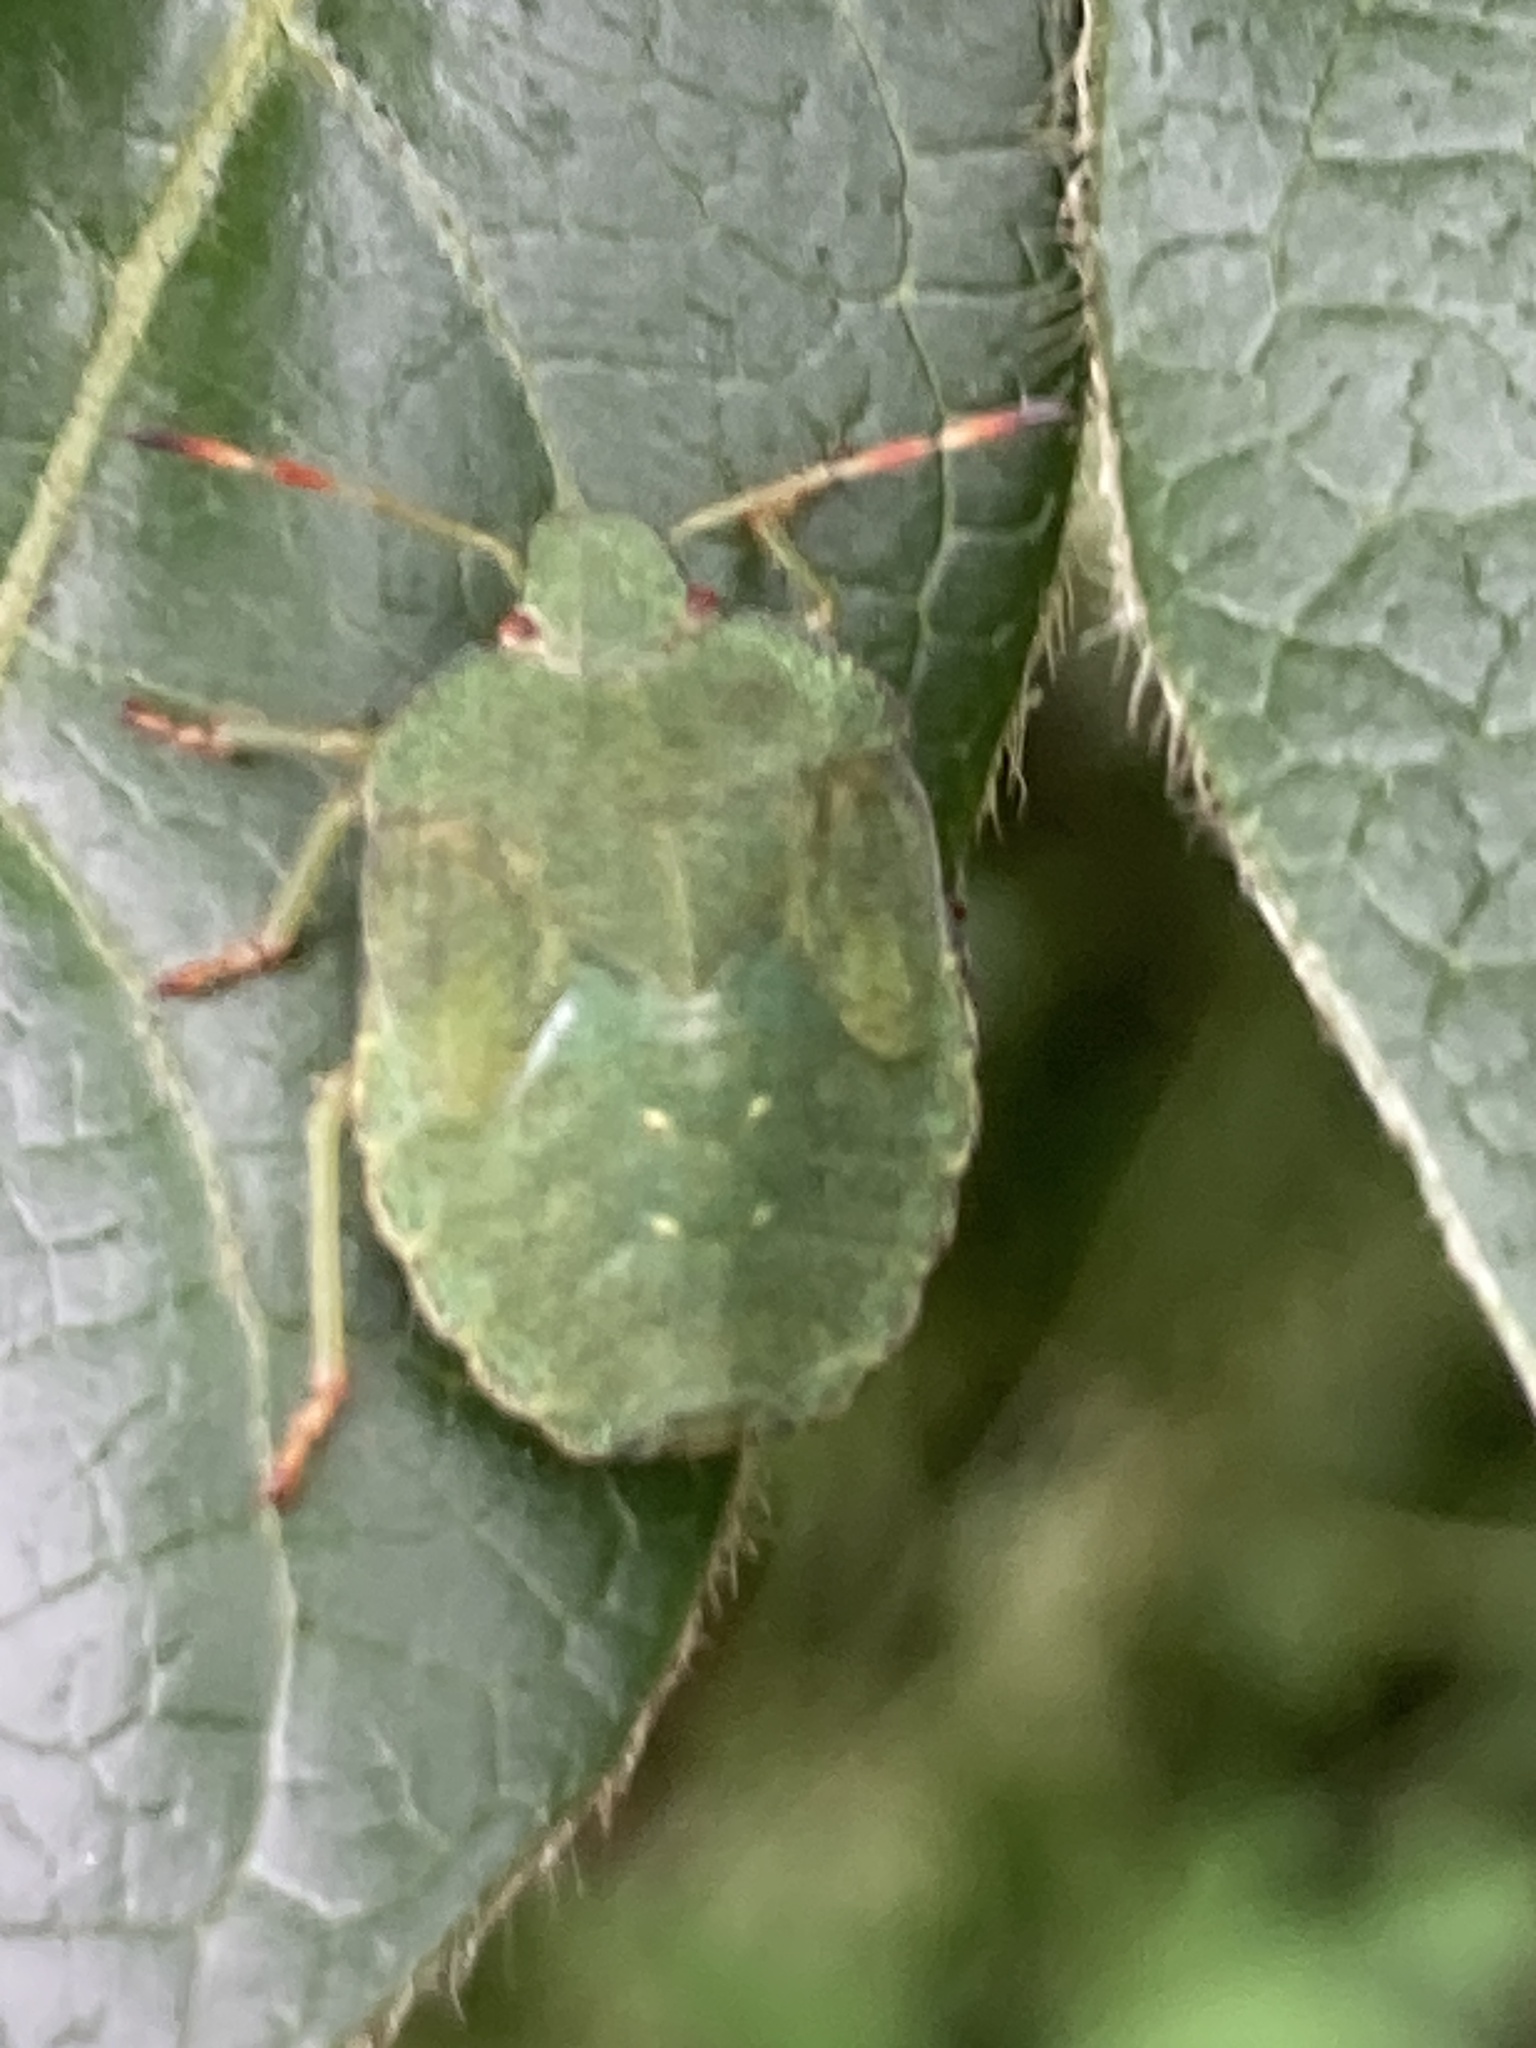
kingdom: Animalia
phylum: Arthropoda
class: Insecta
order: Hemiptera
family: Pentatomidae
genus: Palomena
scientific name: Palomena prasina
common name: Green shieldbug
